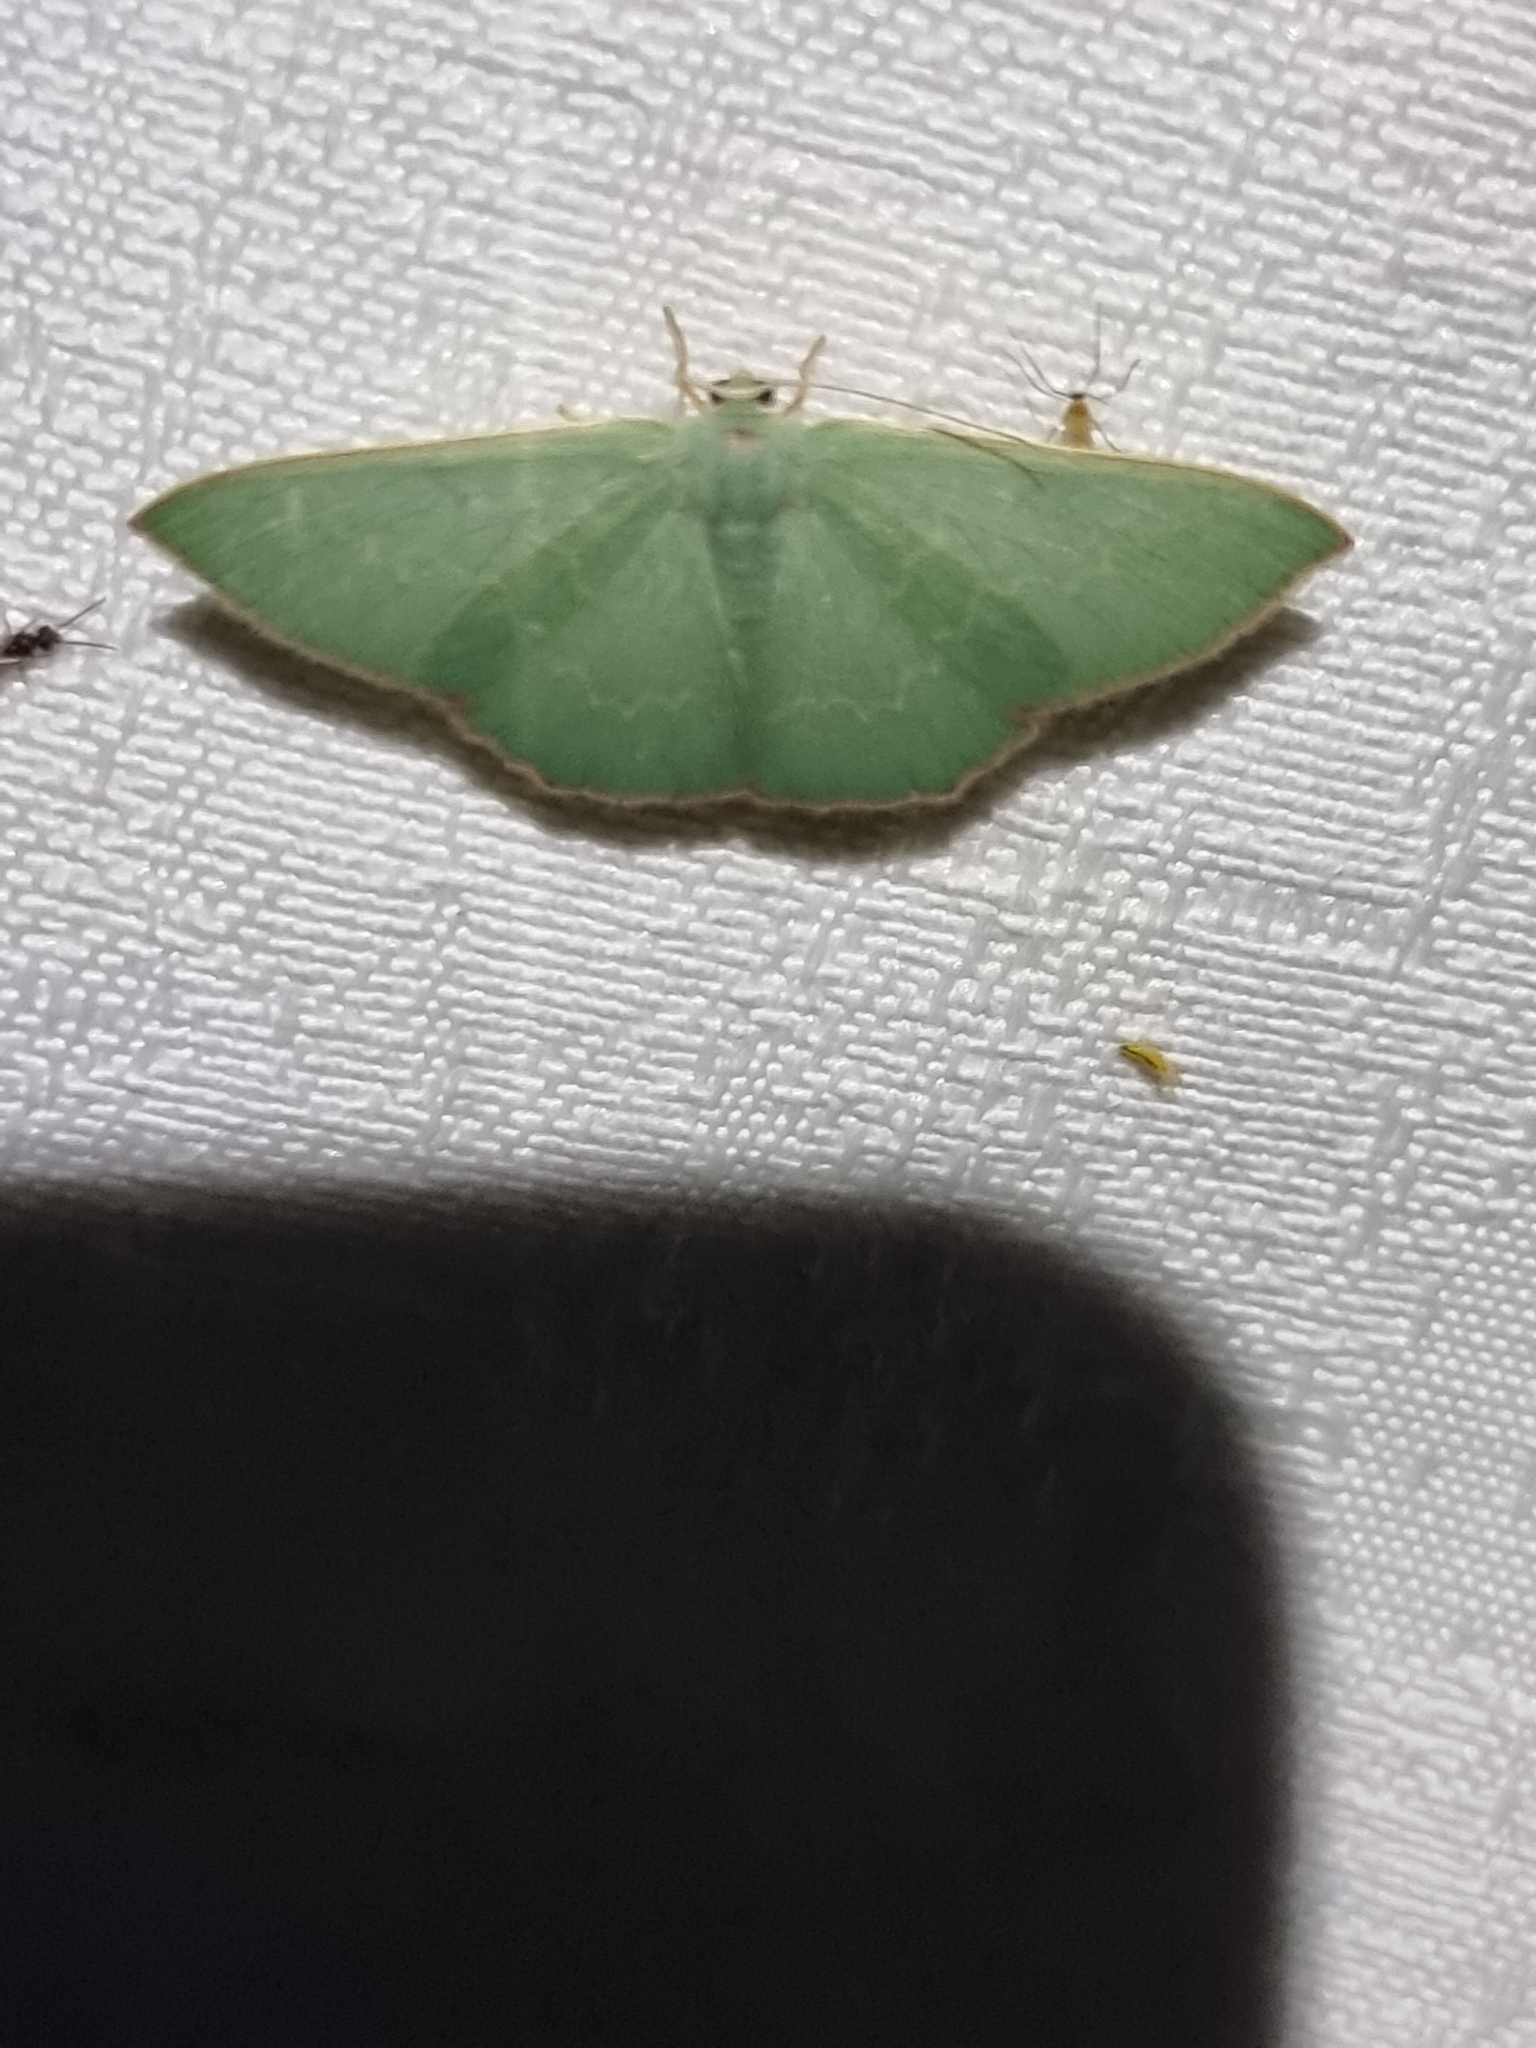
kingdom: Animalia
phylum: Arthropoda
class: Insecta
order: Lepidoptera
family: Geometridae
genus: Prasinocyma
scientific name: Prasinocyma semicrocea
